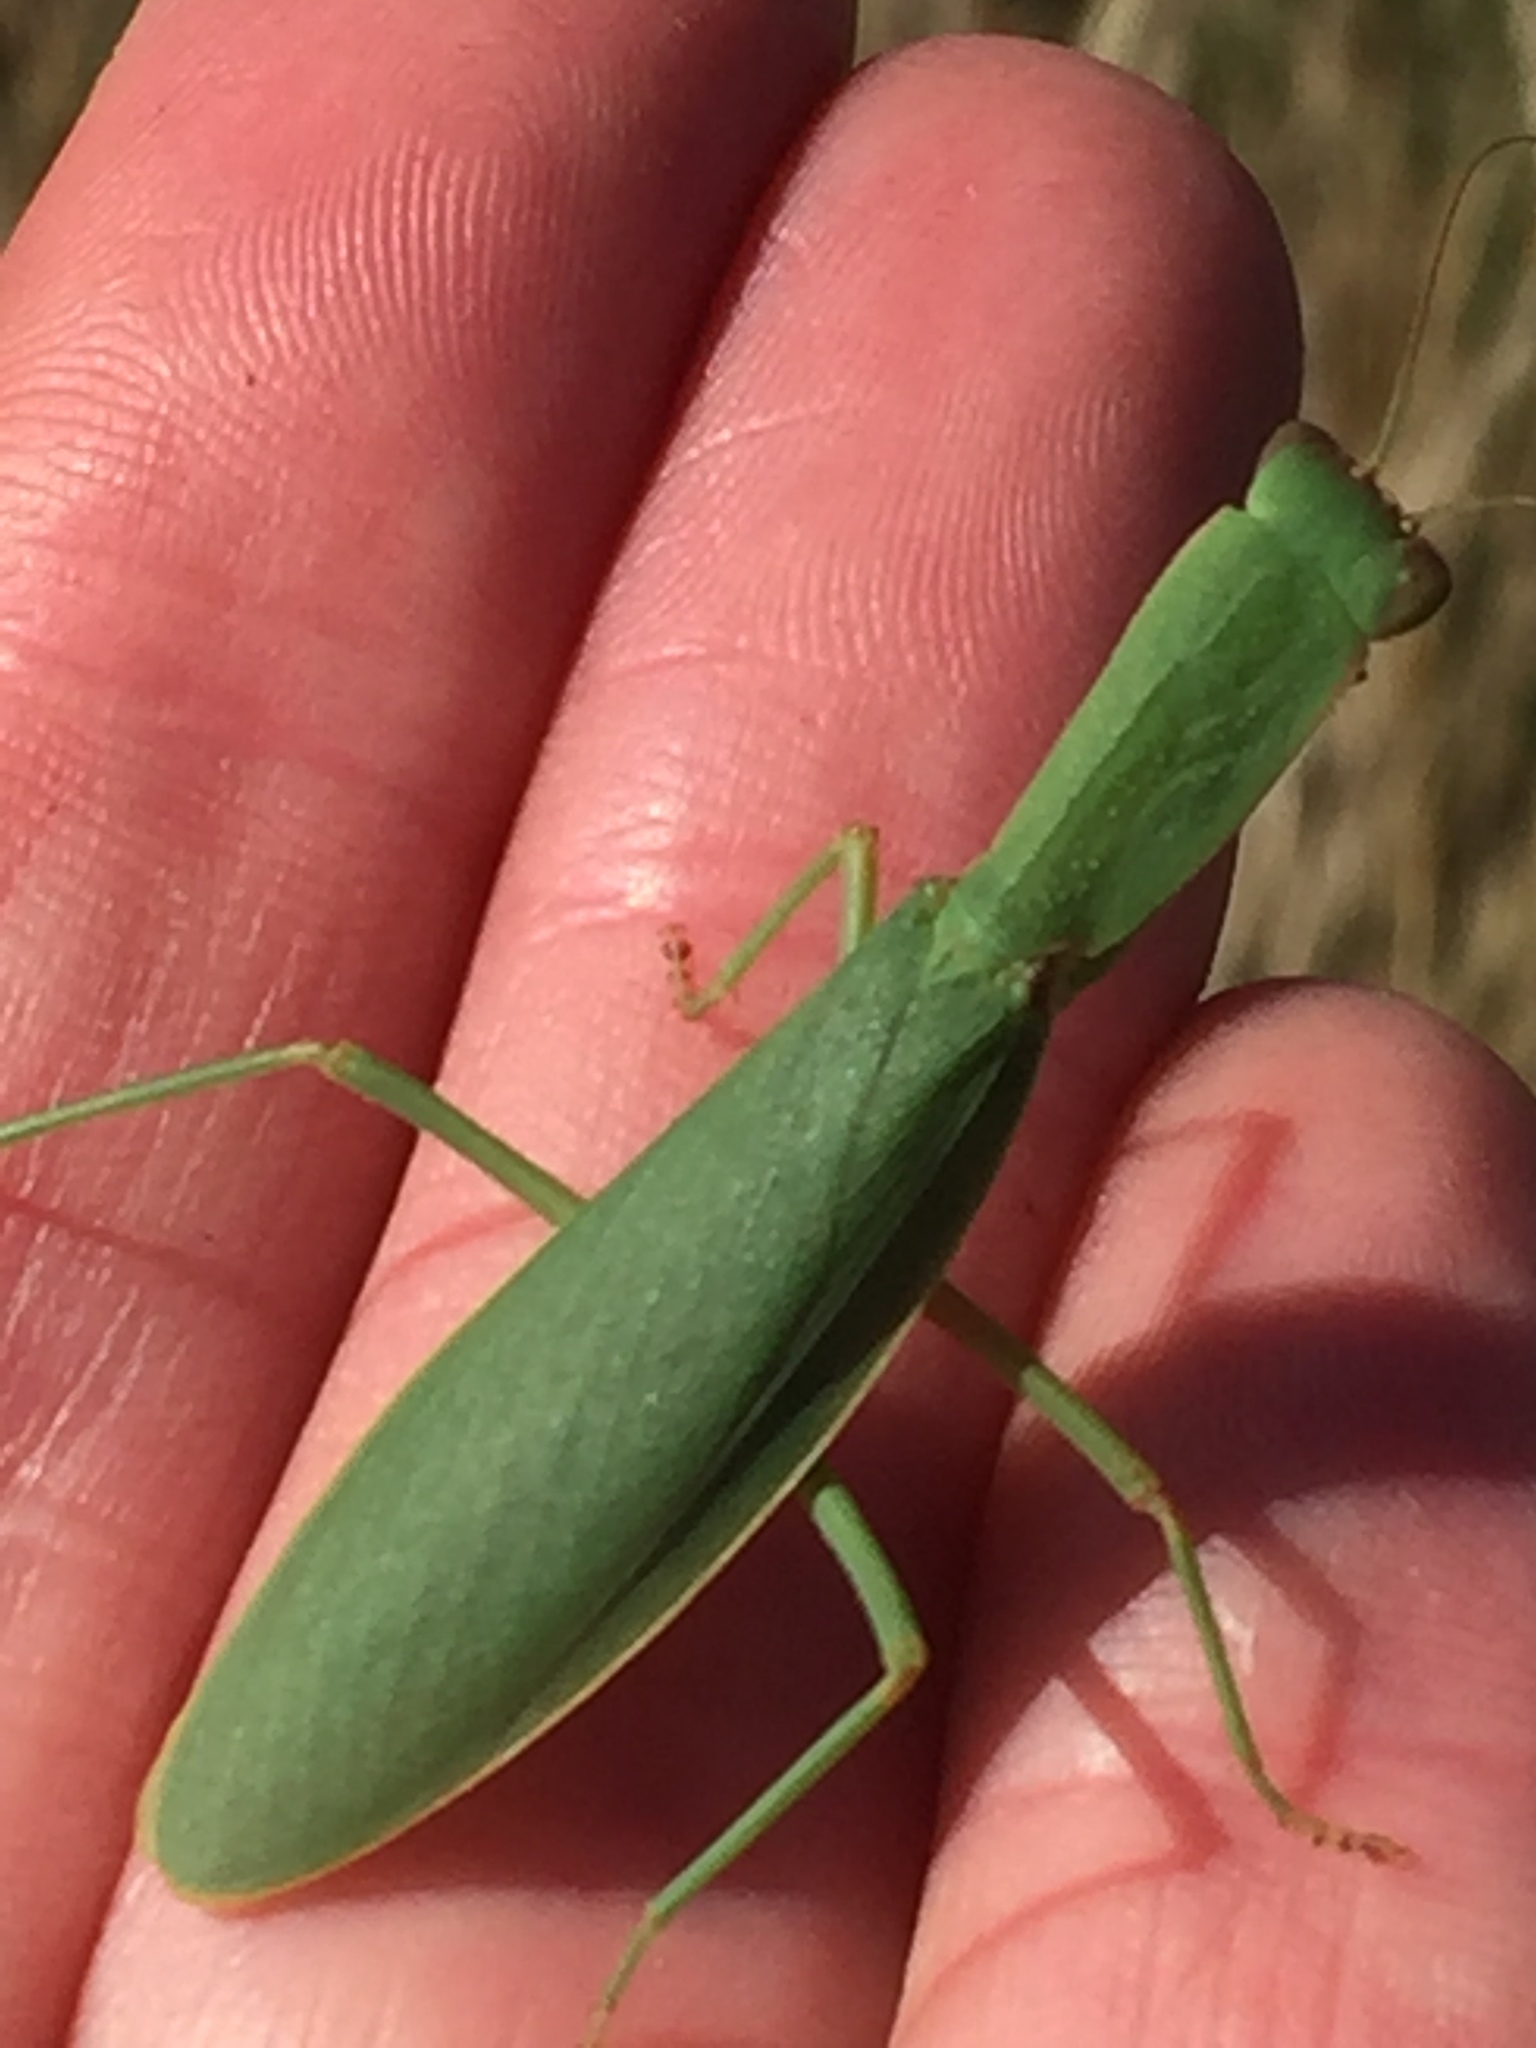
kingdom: Animalia
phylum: Arthropoda
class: Insecta
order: Mantodea
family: Mantidae
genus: Orthodera
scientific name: Orthodera novaezealandiae
